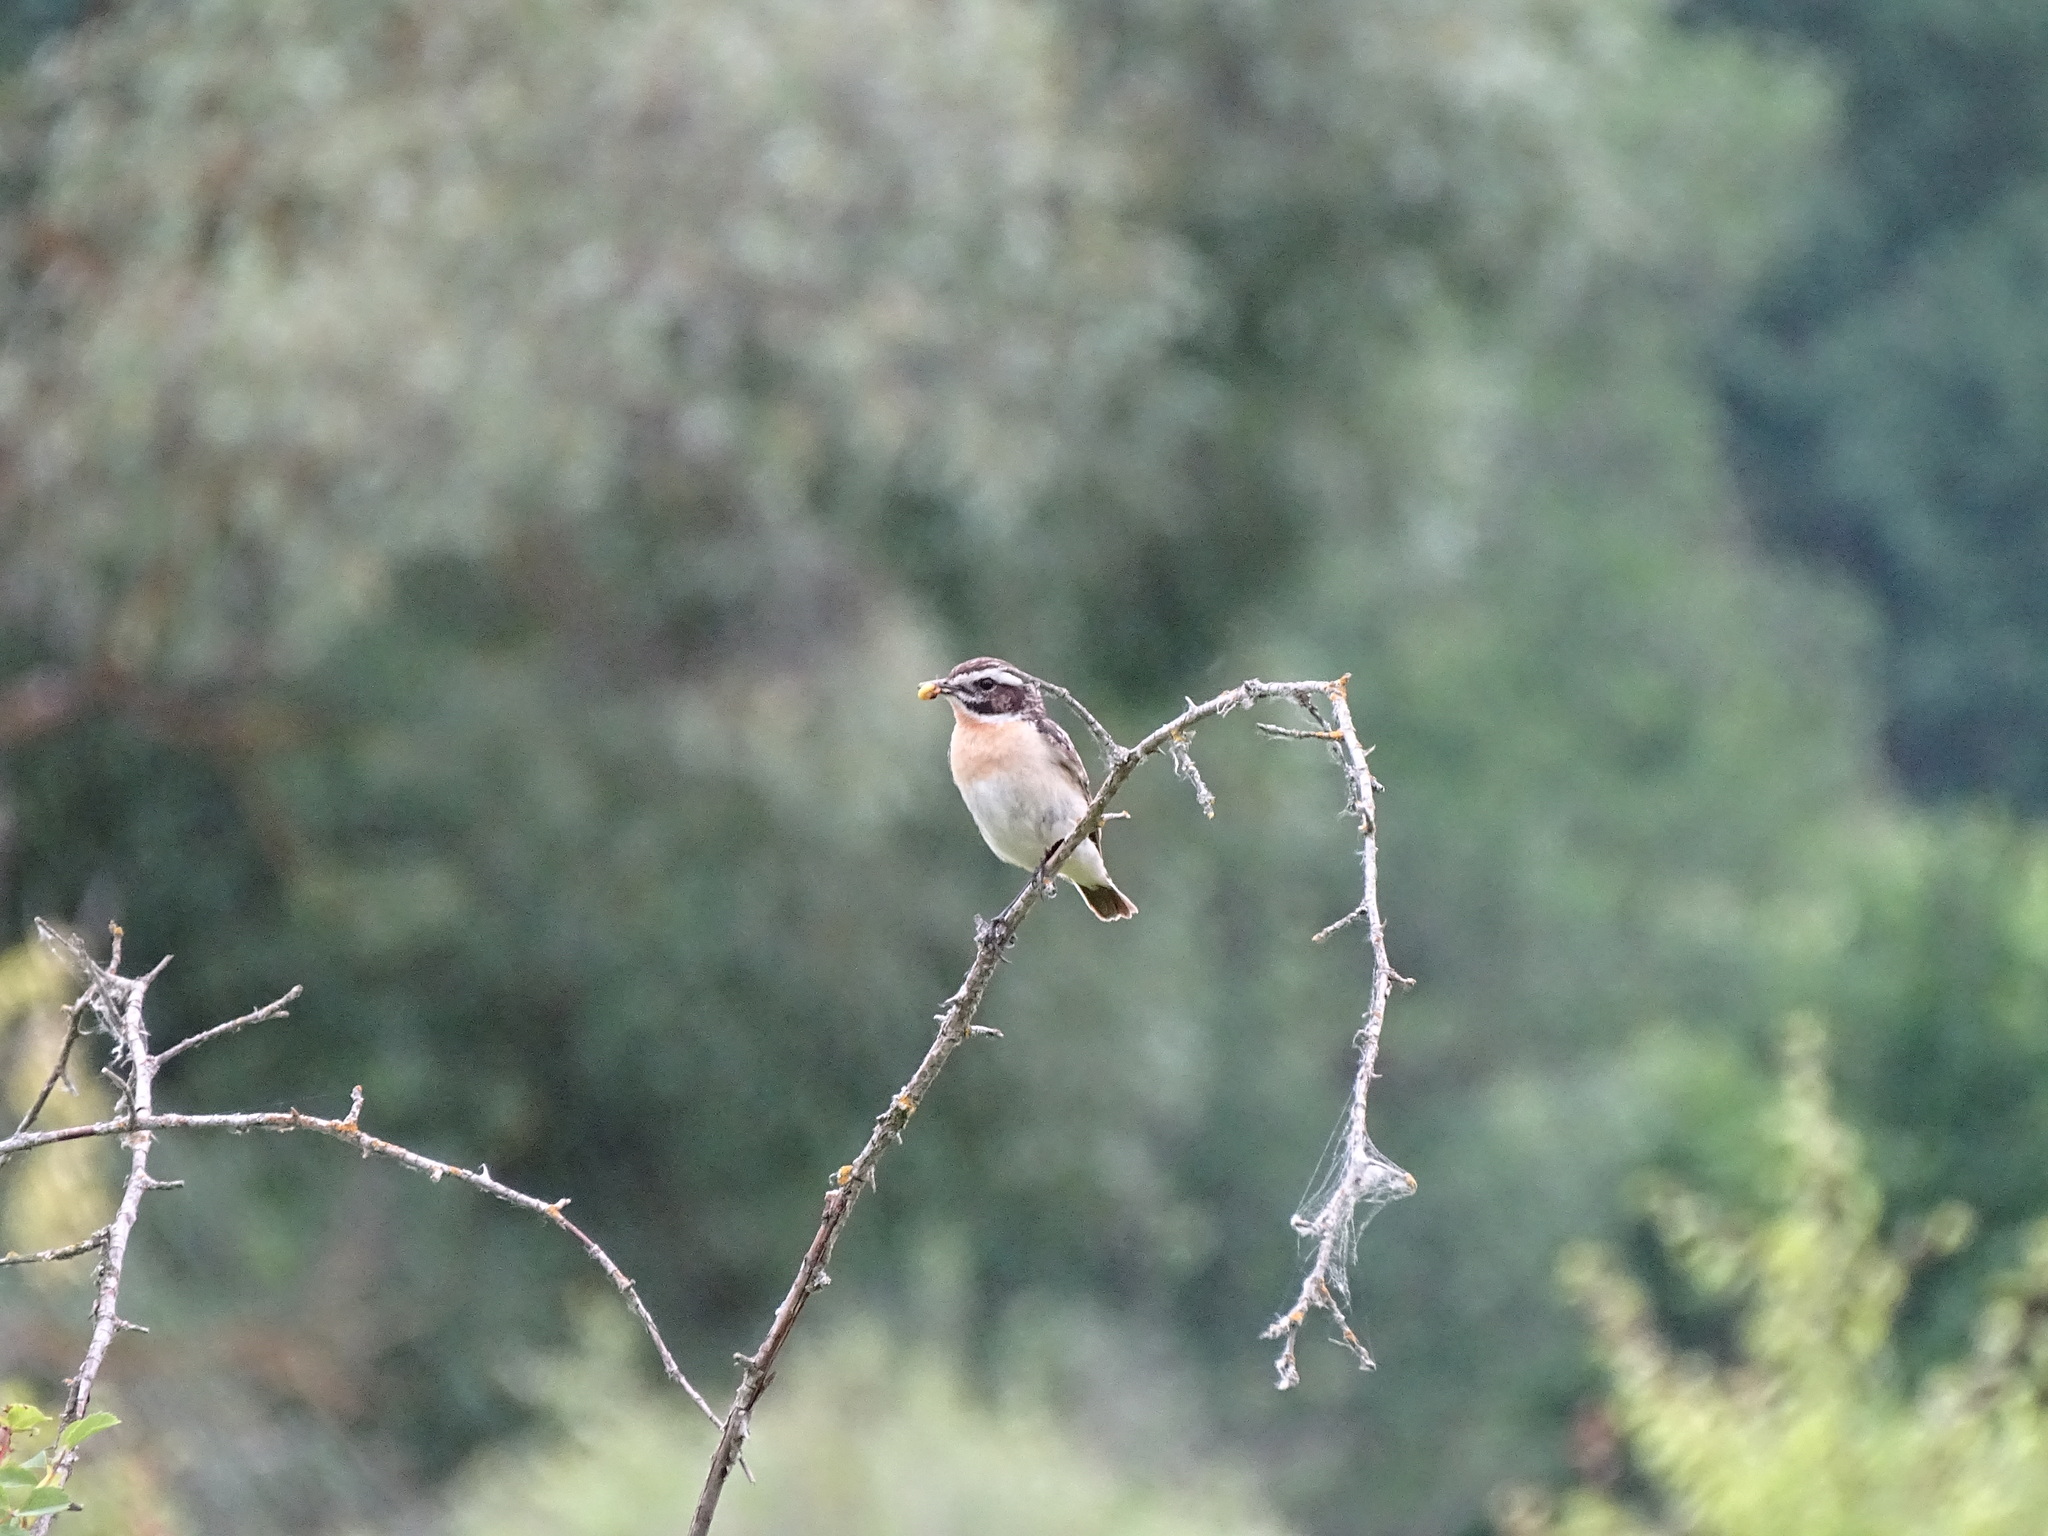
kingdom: Animalia
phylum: Chordata
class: Aves
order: Passeriformes
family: Muscicapidae
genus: Saxicola
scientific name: Saxicola rubetra
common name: Whinchat
